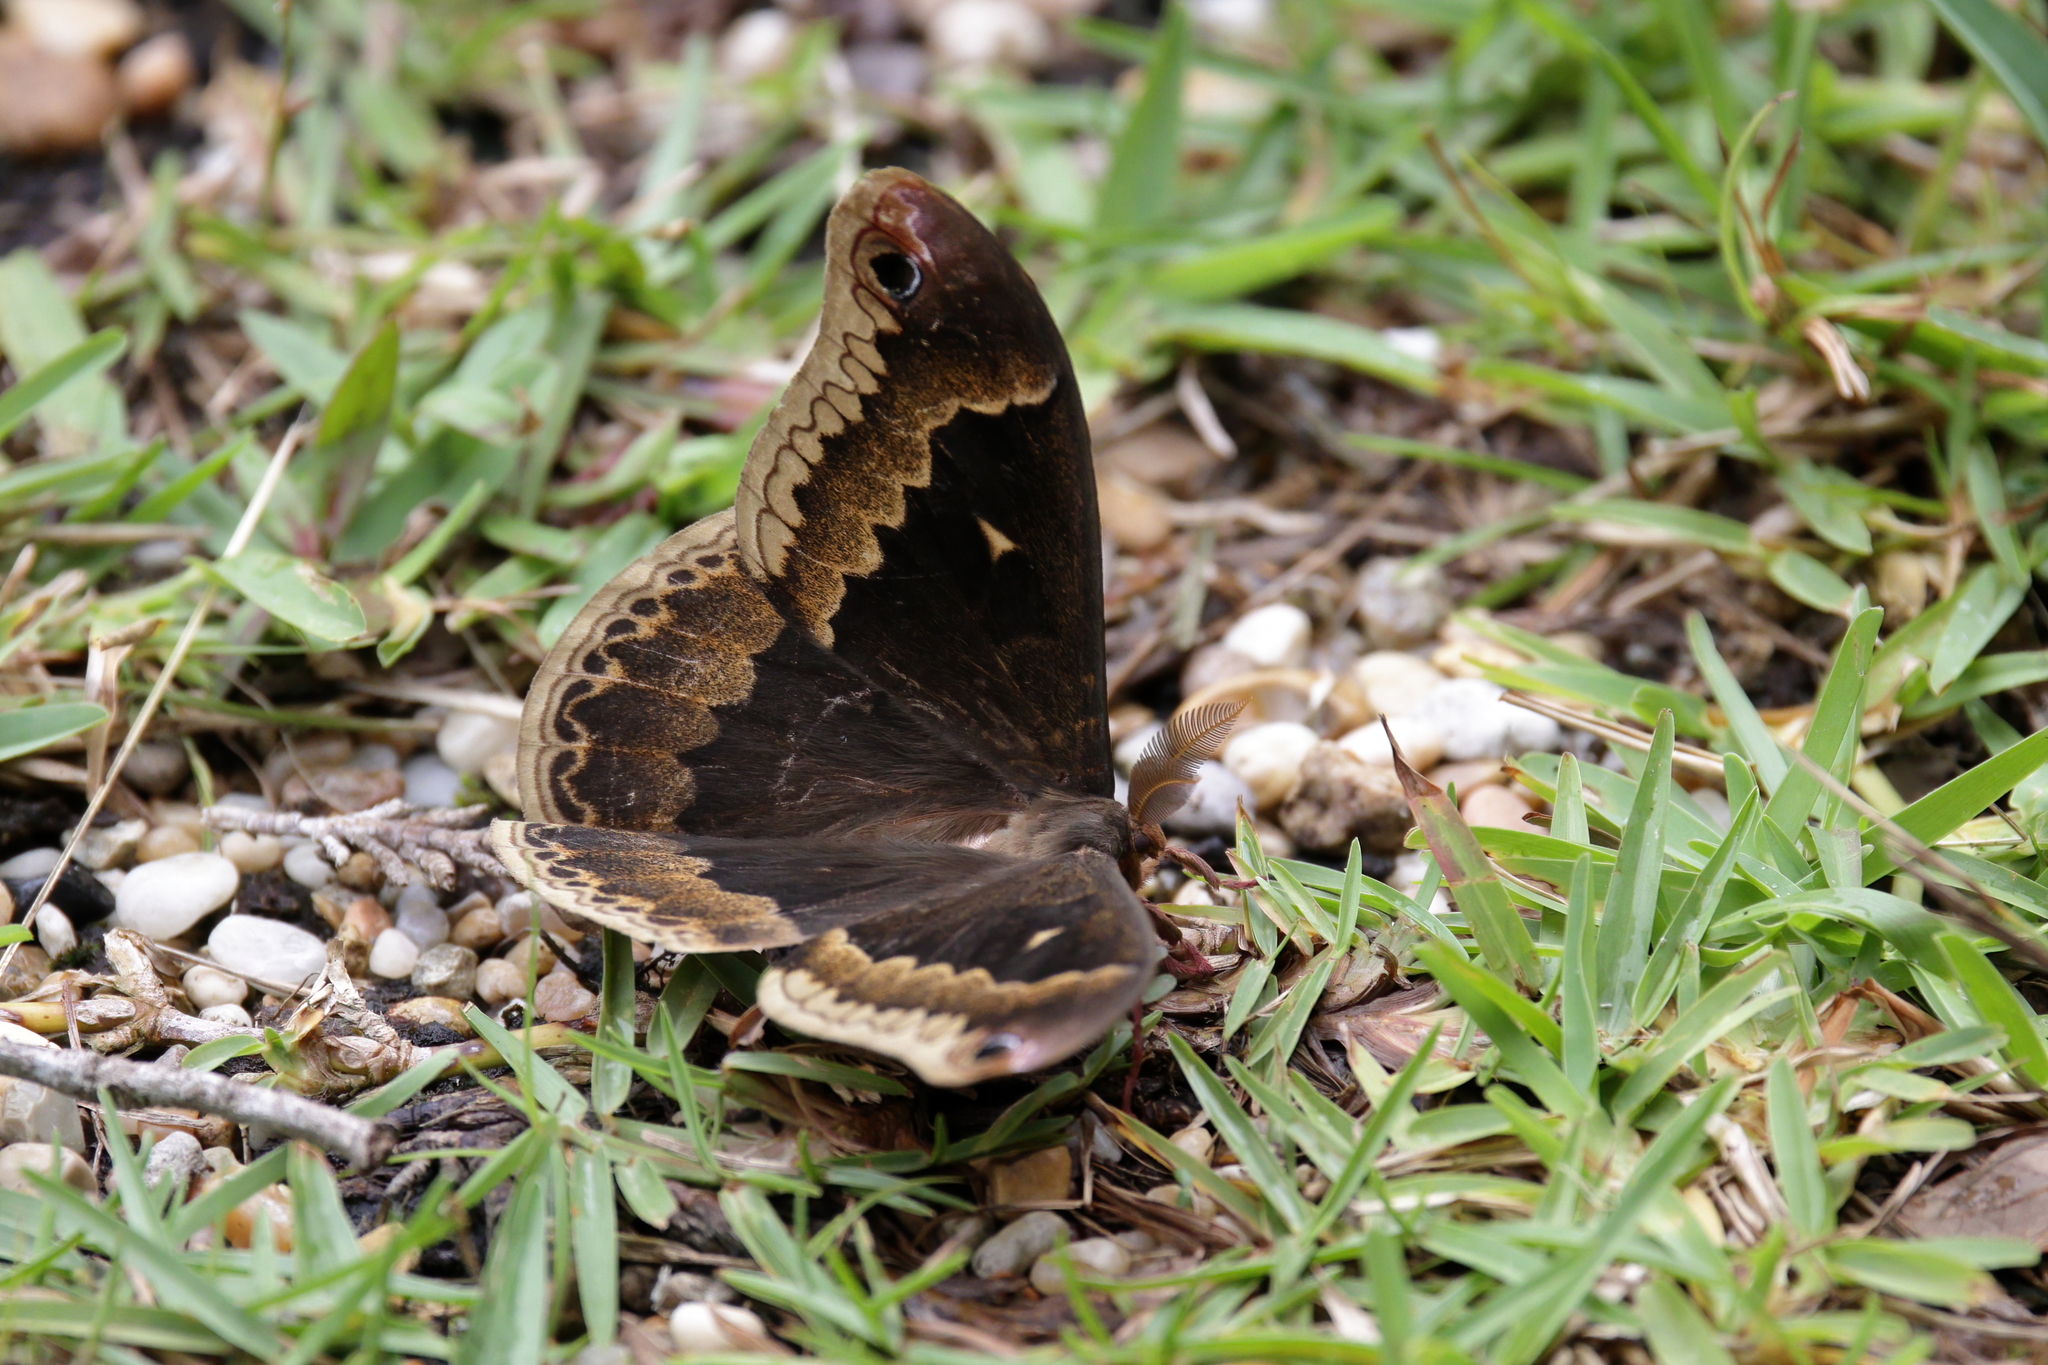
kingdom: Animalia
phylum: Arthropoda
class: Insecta
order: Lepidoptera
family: Saturniidae
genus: Callosamia
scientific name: Callosamia angulifera
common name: Tulip tree silkmoth
